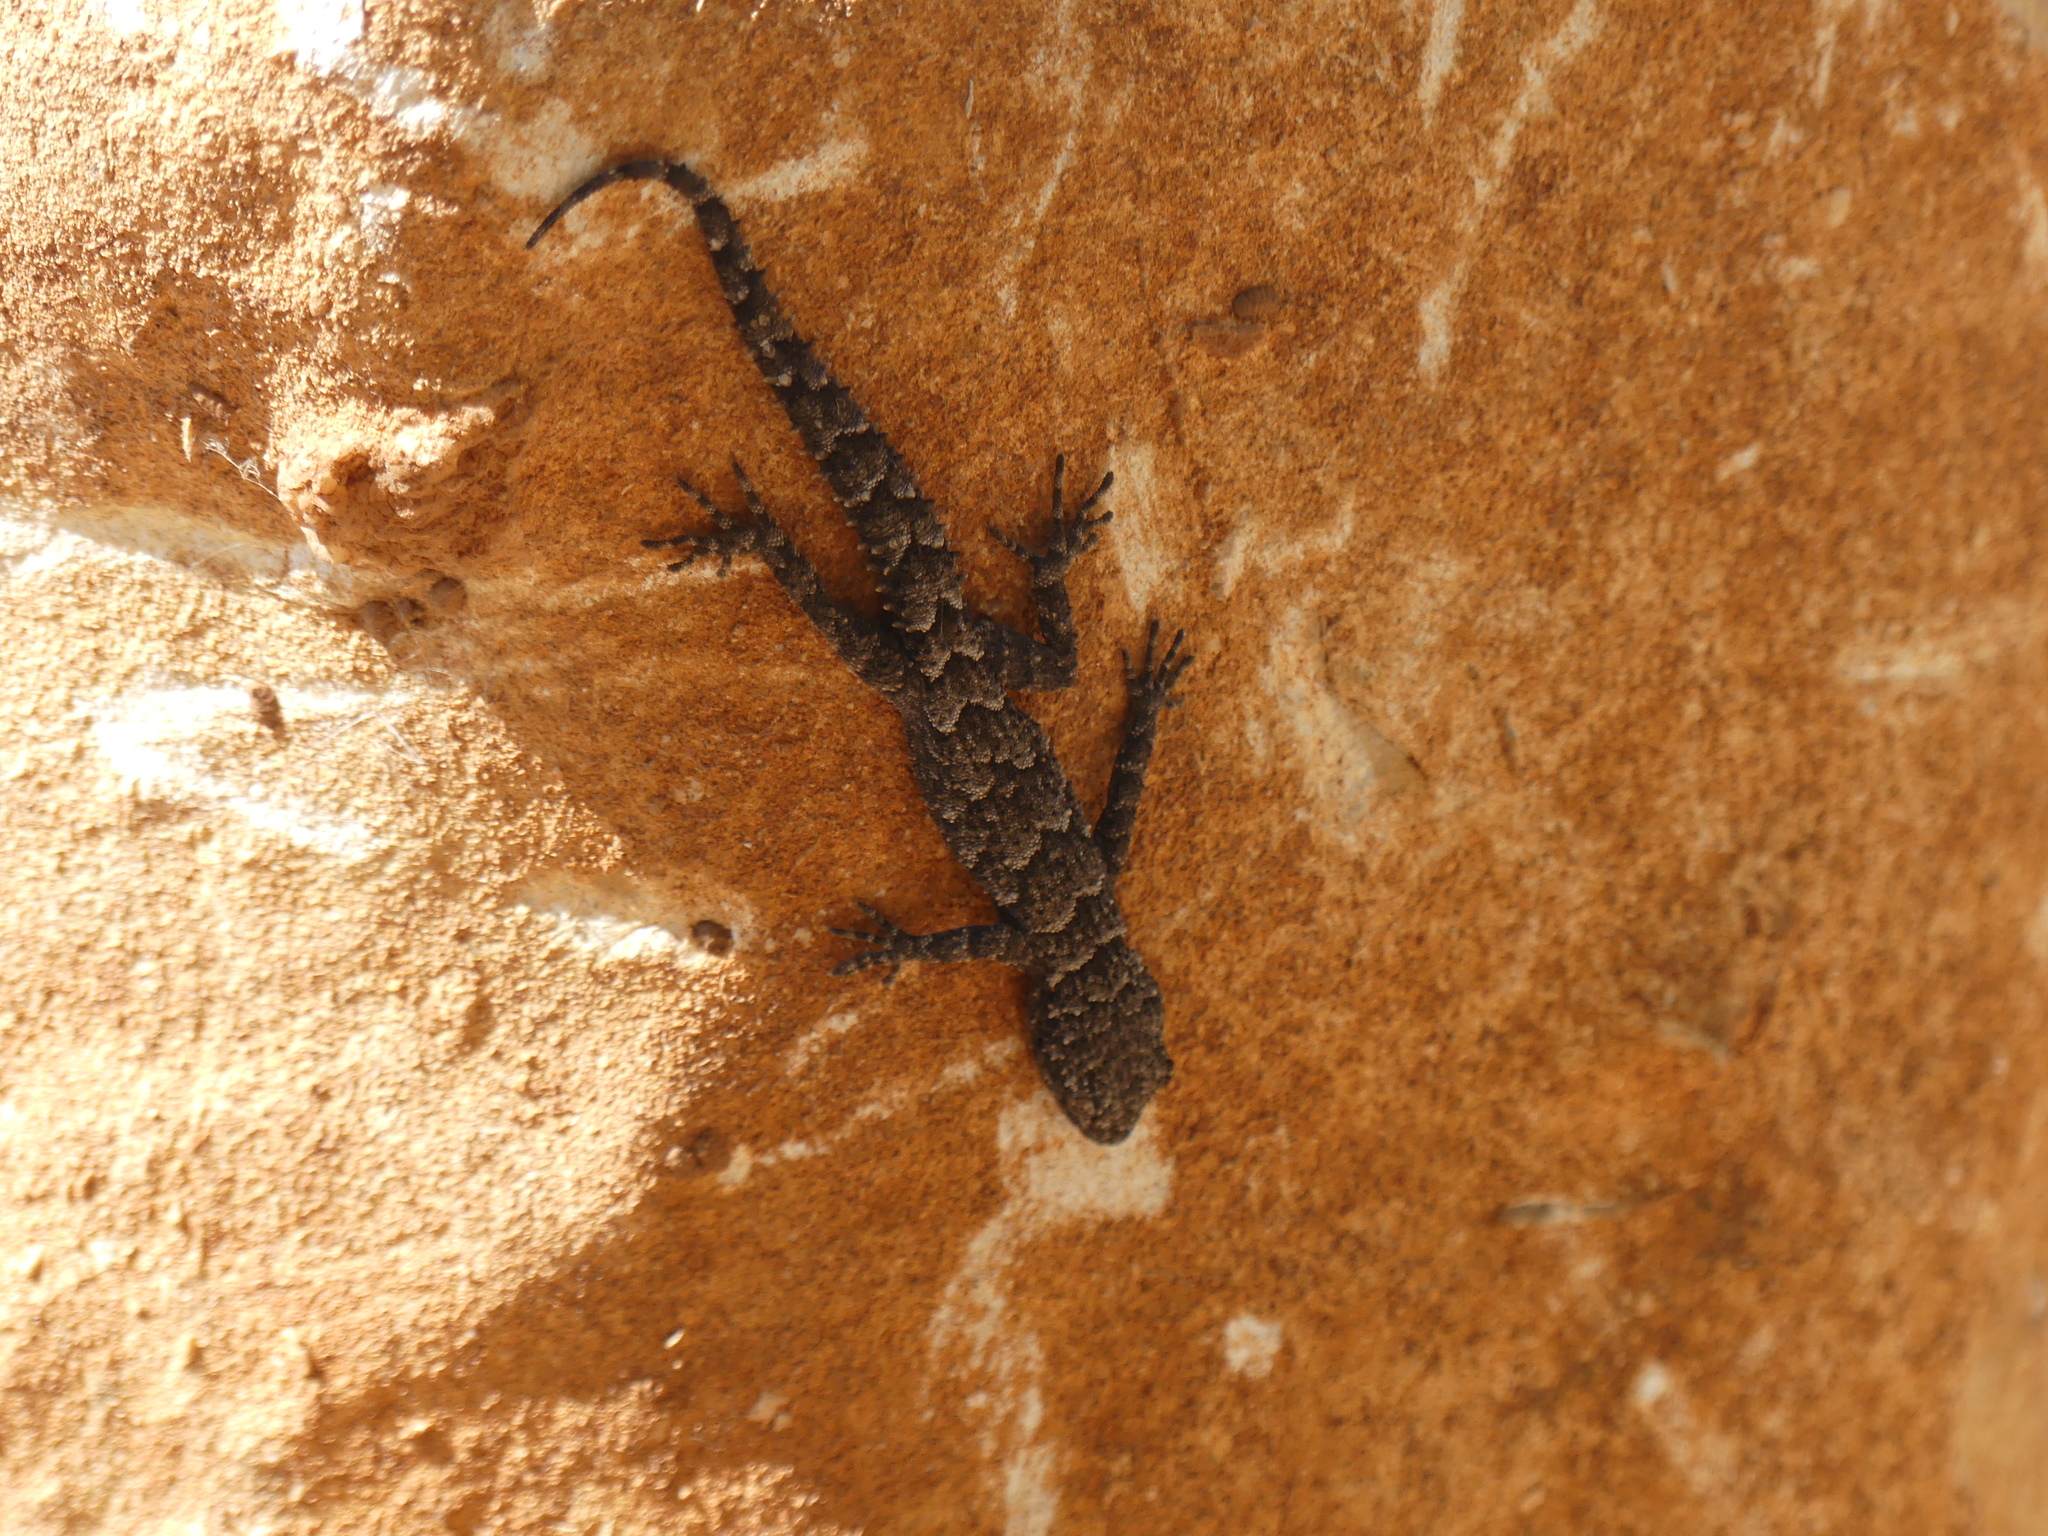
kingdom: Animalia
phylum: Chordata
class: Squamata
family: Gekkonidae
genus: Mediodactylus
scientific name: Mediodactylus orientalis
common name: Mediterranean thin-toed gecko
